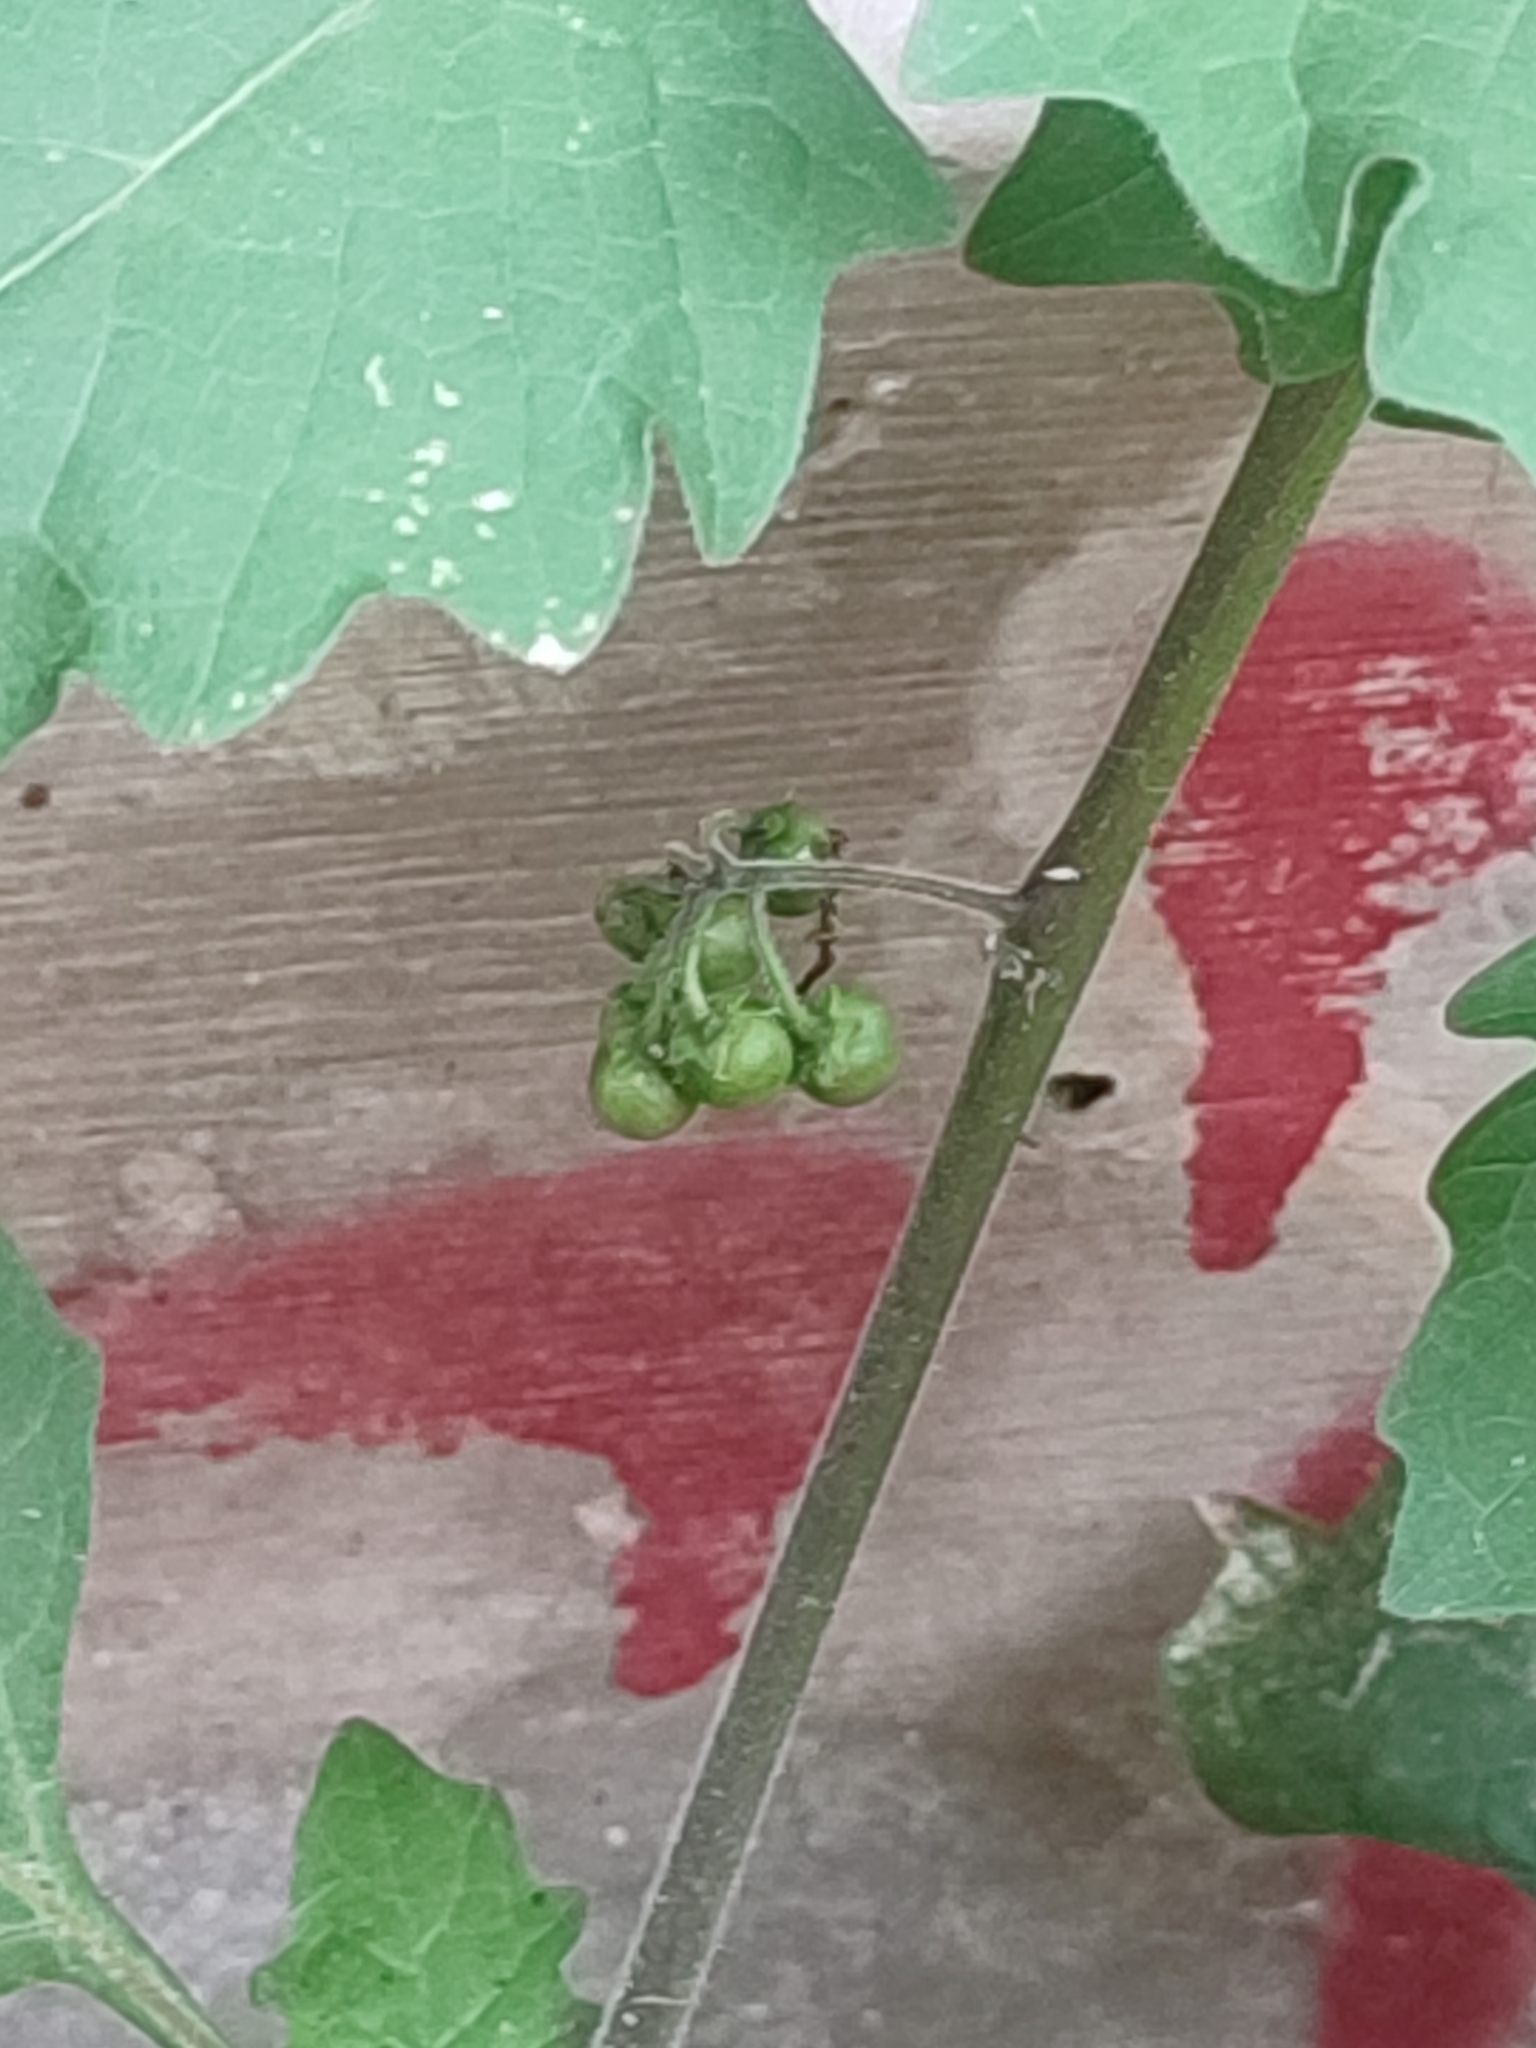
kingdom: Plantae
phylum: Tracheophyta
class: Magnoliopsida
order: Solanales
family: Solanaceae
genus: Solanum
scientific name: Solanum nigrum
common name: Black nightshade
